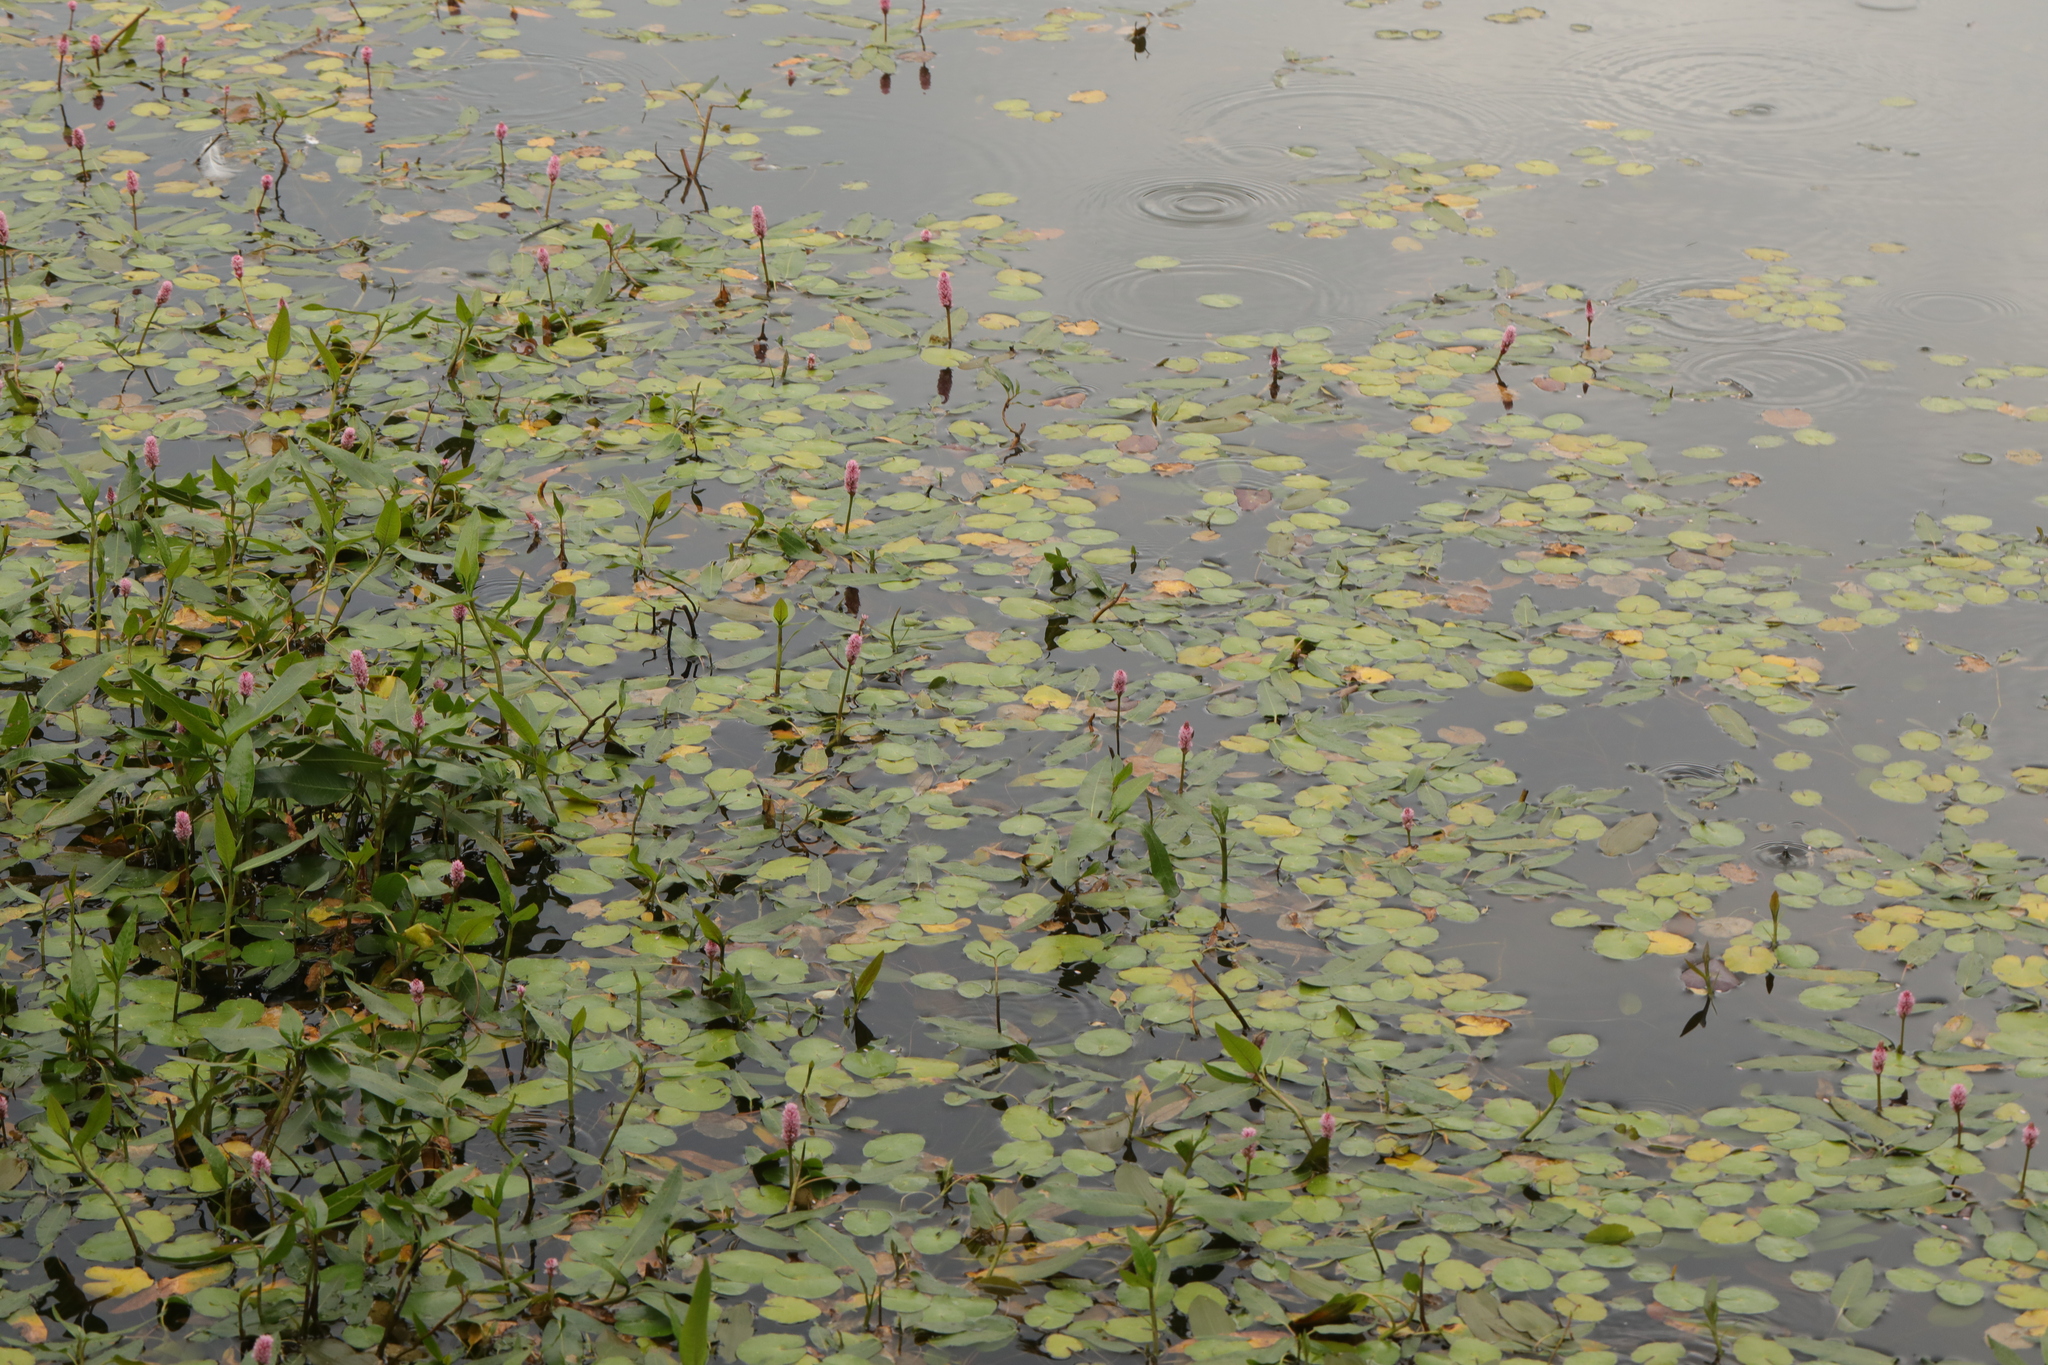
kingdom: Plantae
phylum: Tracheophyta
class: Magnoliopsida
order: Caryophyllales
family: Polygonaceae
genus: Persicaria
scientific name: Persicaria amphibia
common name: Amphibious bistort
